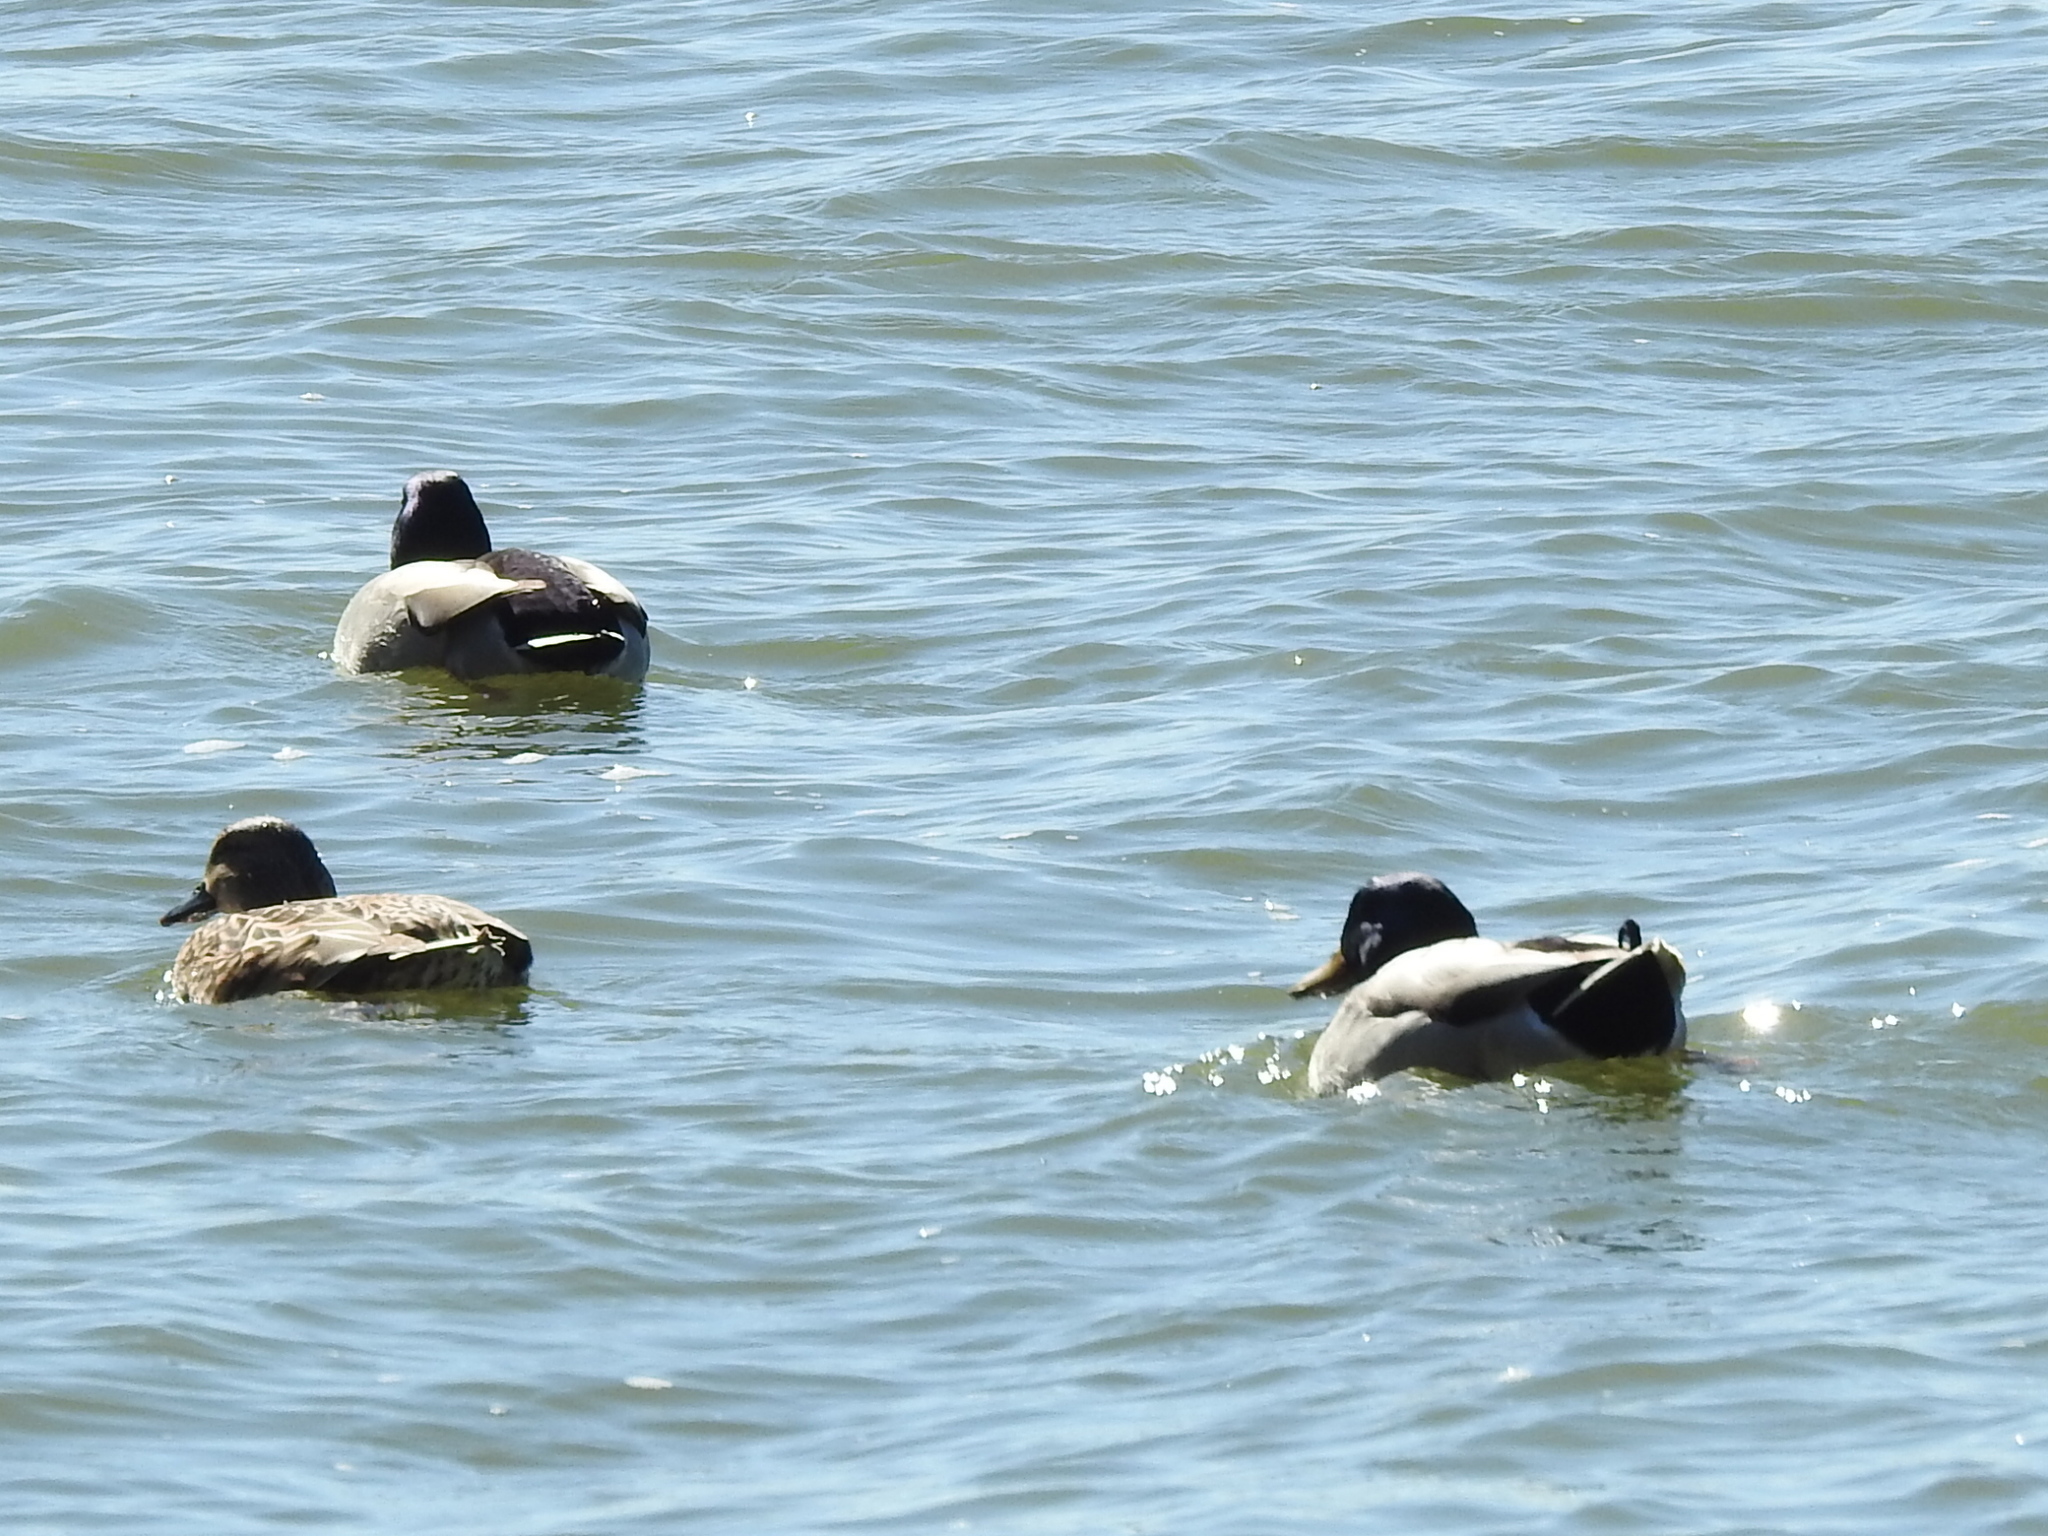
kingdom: Animalia
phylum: Chordata
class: Aves
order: Anseriformes
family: Anatidae
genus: Anas
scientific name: Anas platyrhynchos
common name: Mallard
